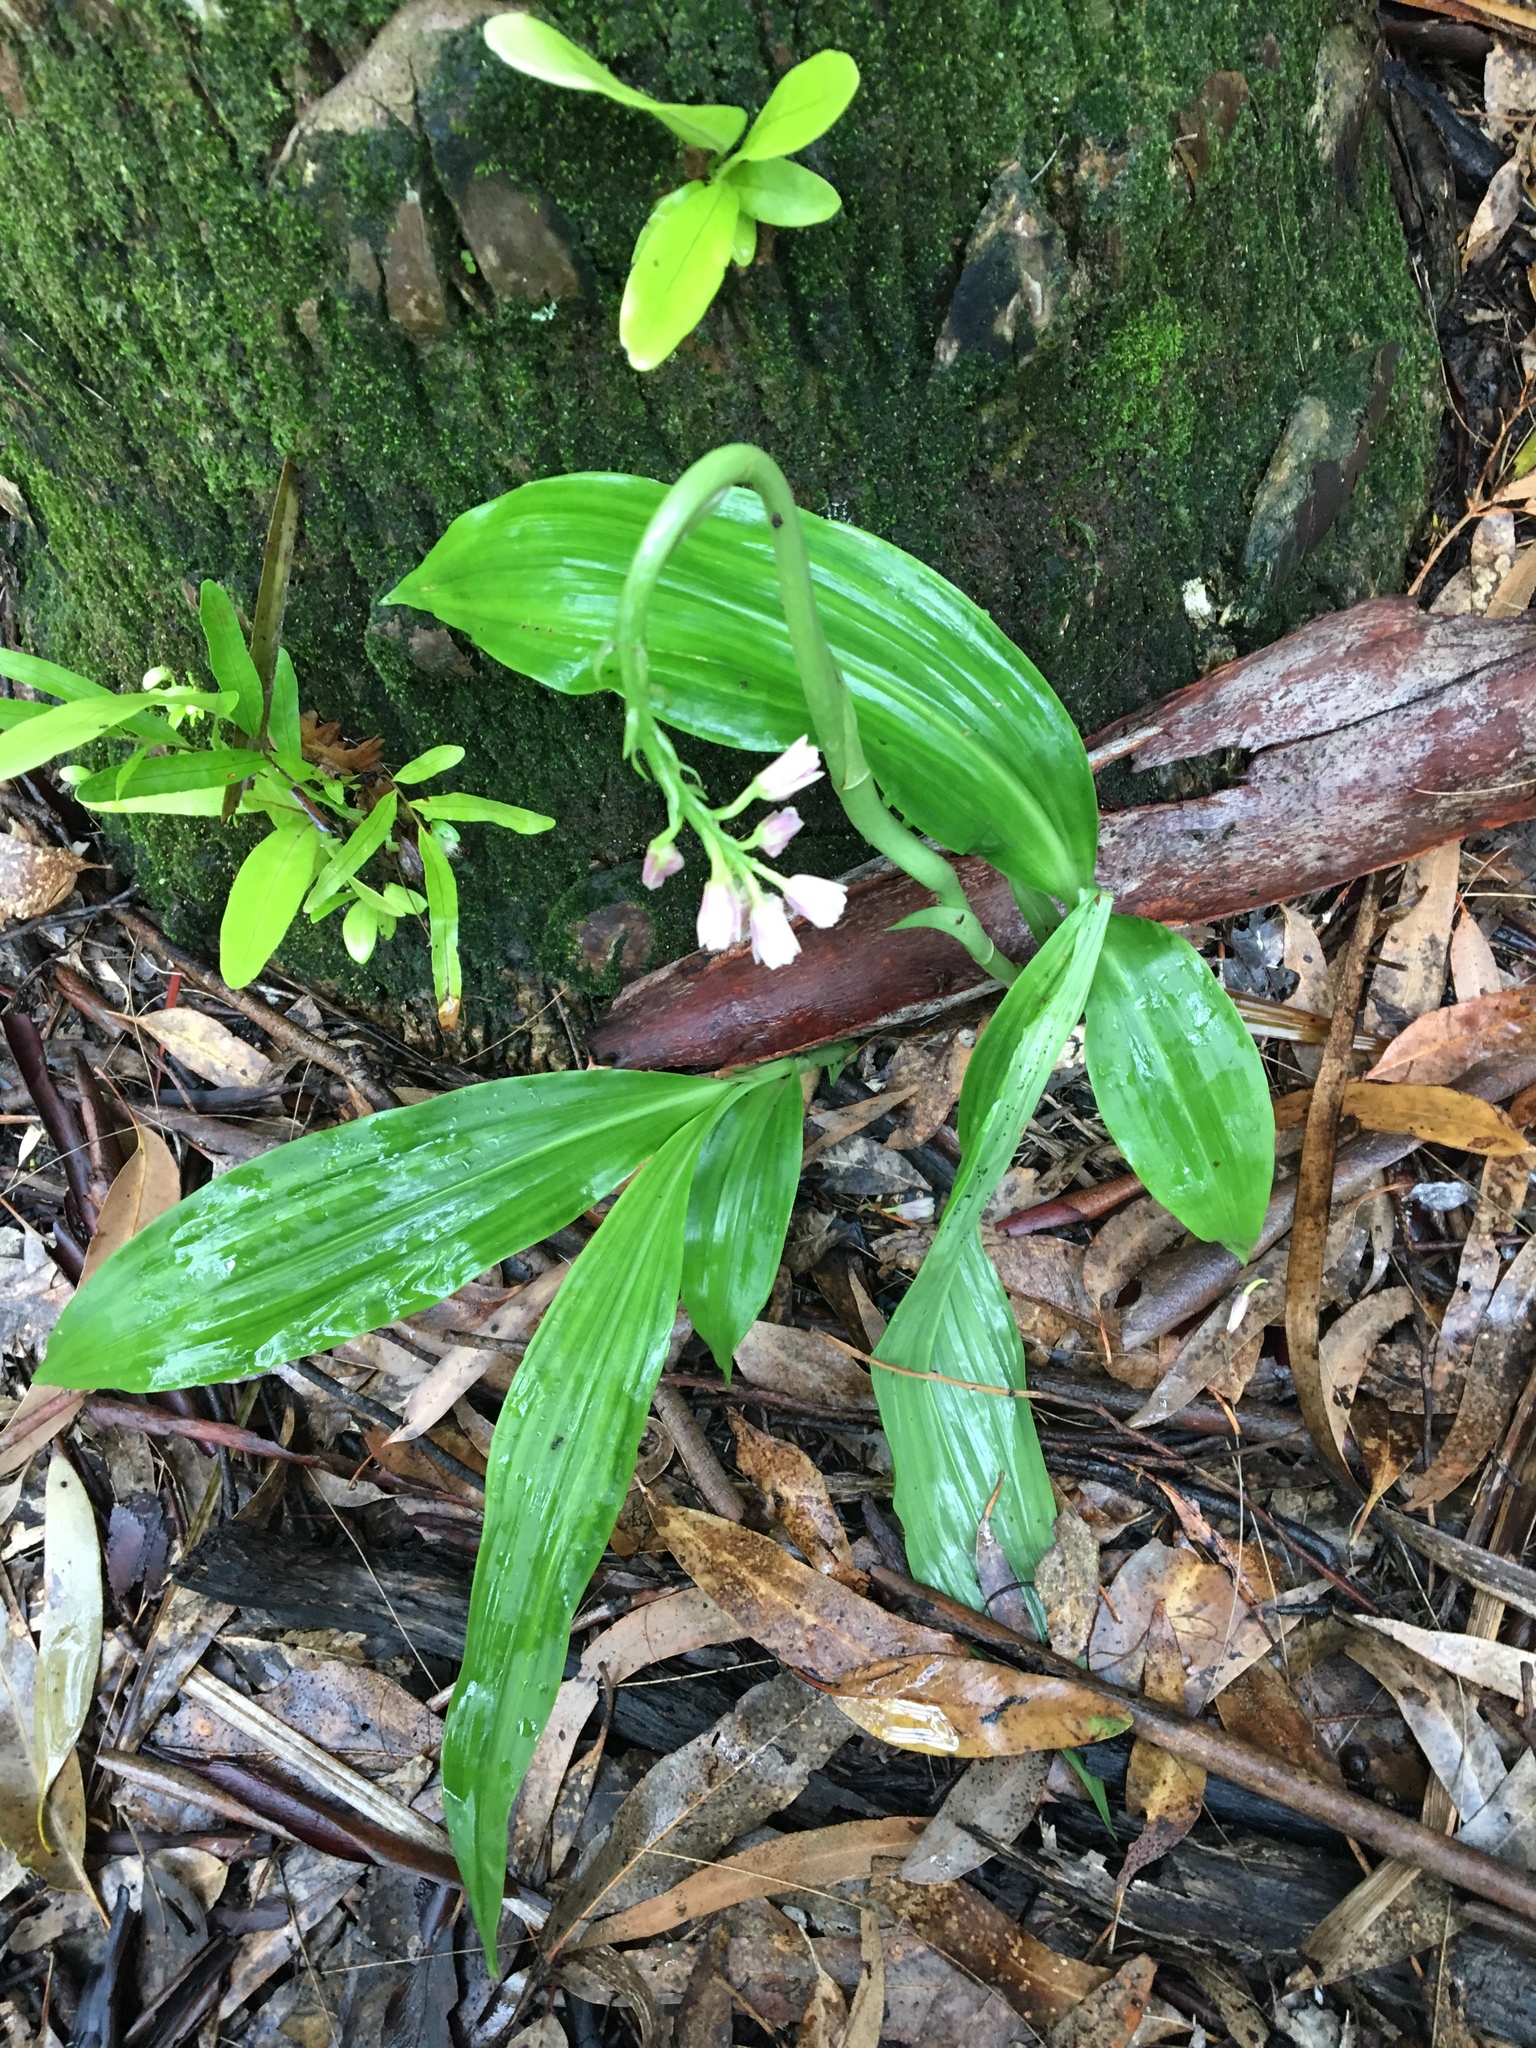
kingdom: Plantae
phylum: Tracheophyta
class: Liliopsida
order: Asparagales
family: Orchidaceae
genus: Eulophia
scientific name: Eulophia cernua
